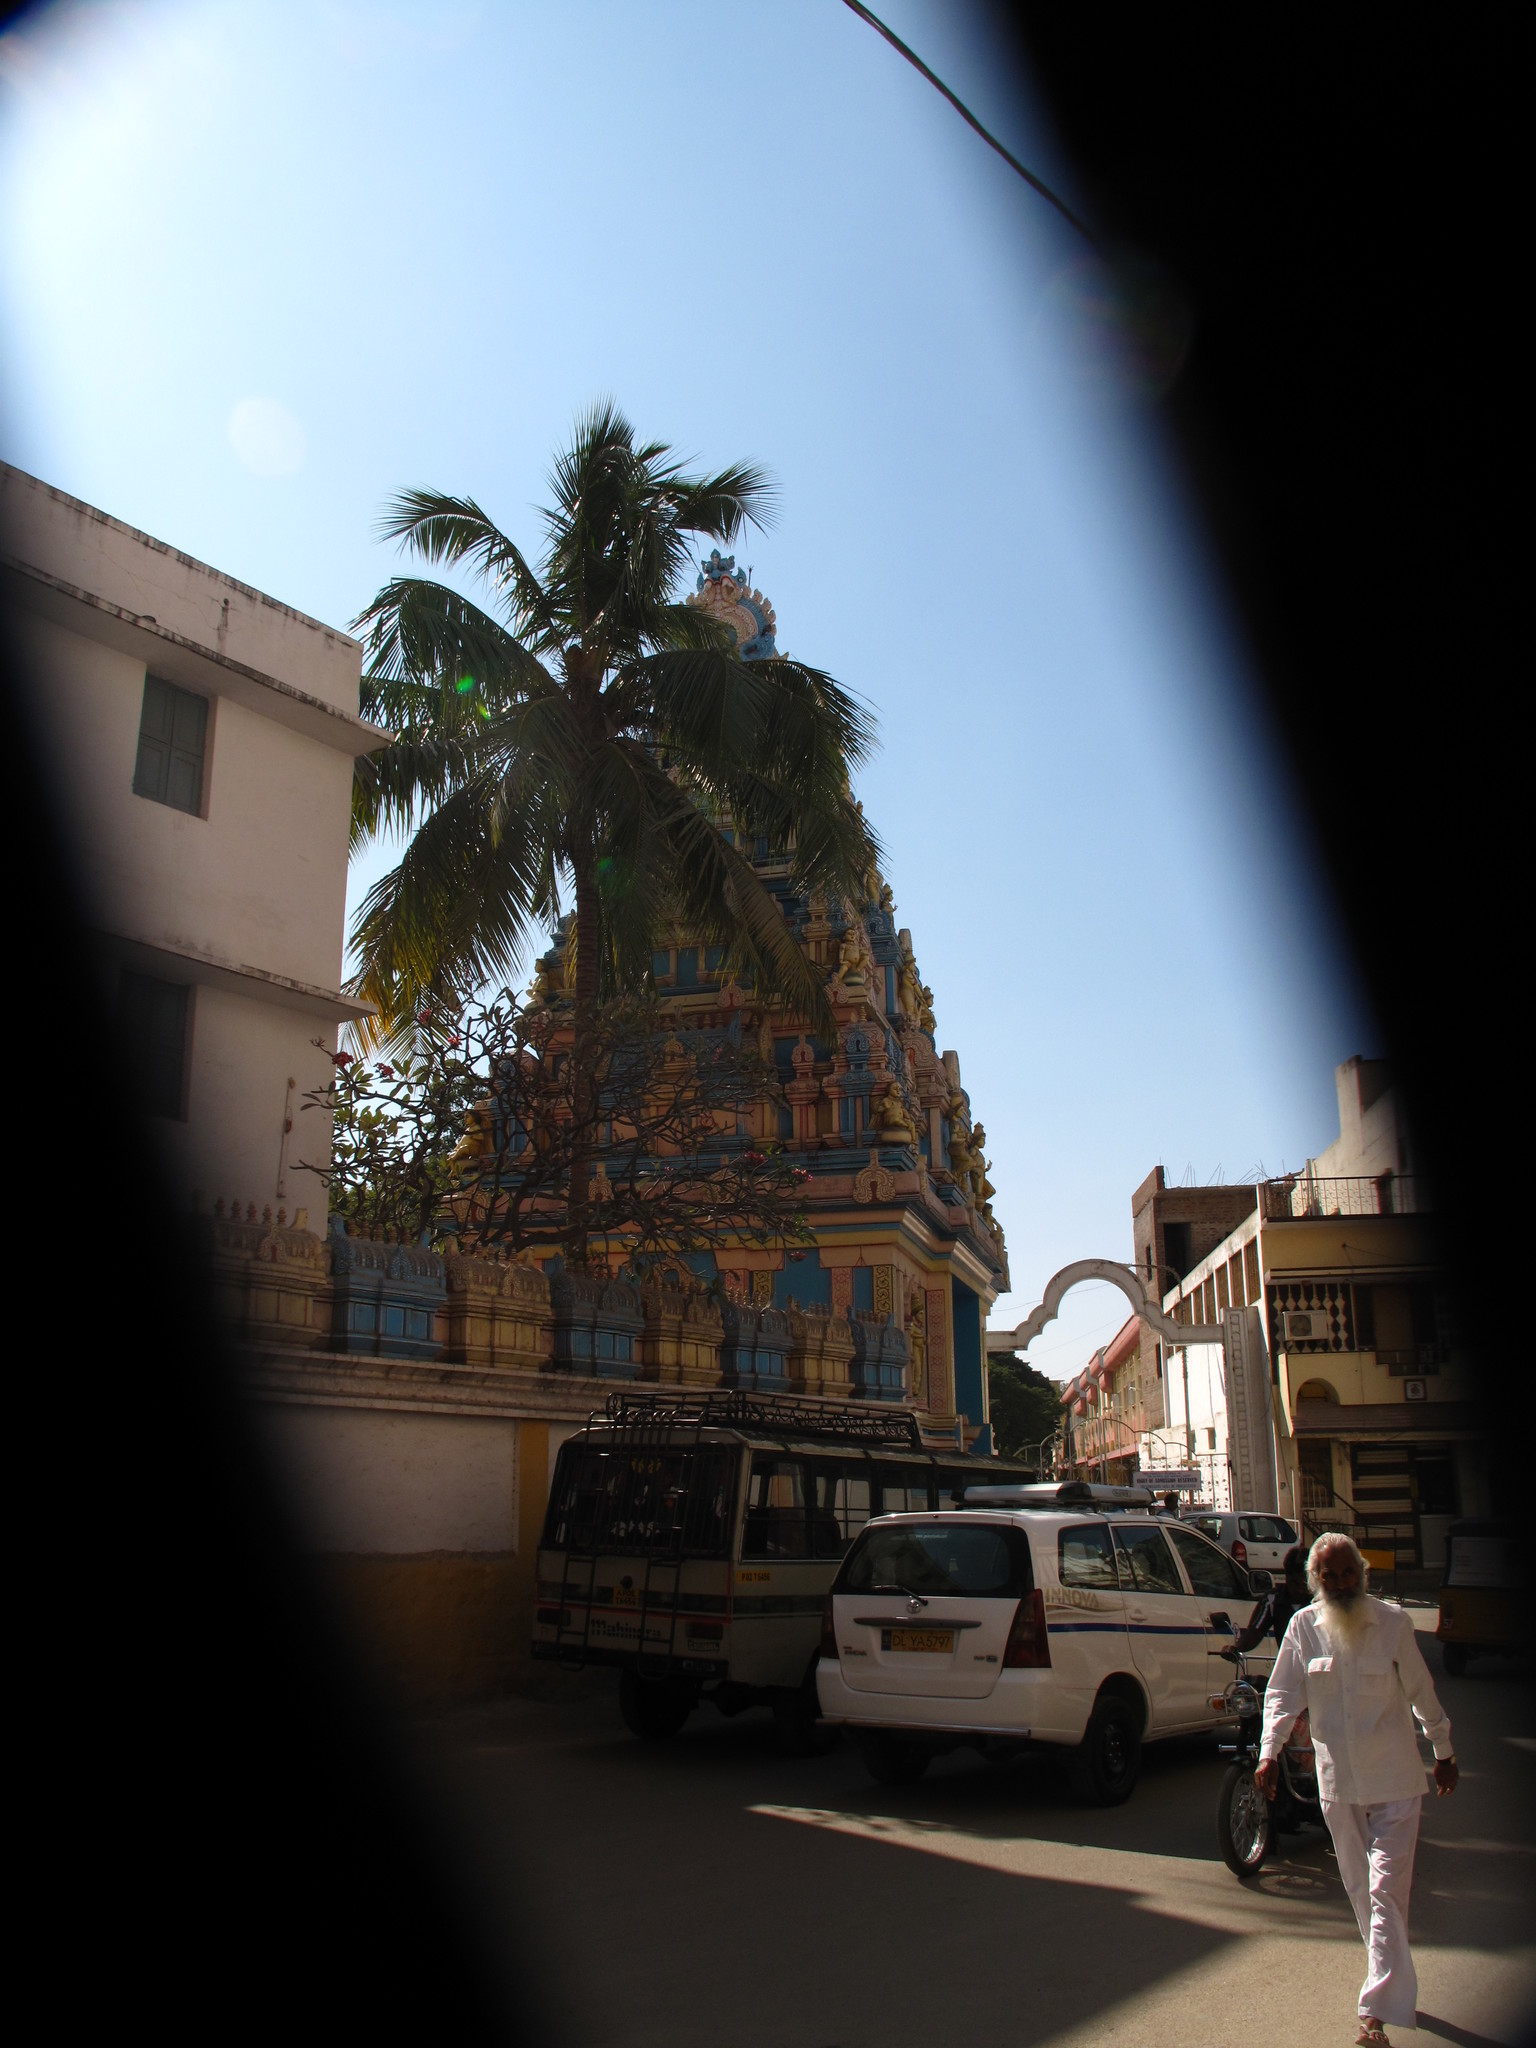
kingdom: Plantae
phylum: Tracheophyta
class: Liliopsida
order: Arecales
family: Arecaceae
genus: Cocos
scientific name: Cocos nucifera
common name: Coconut palm
